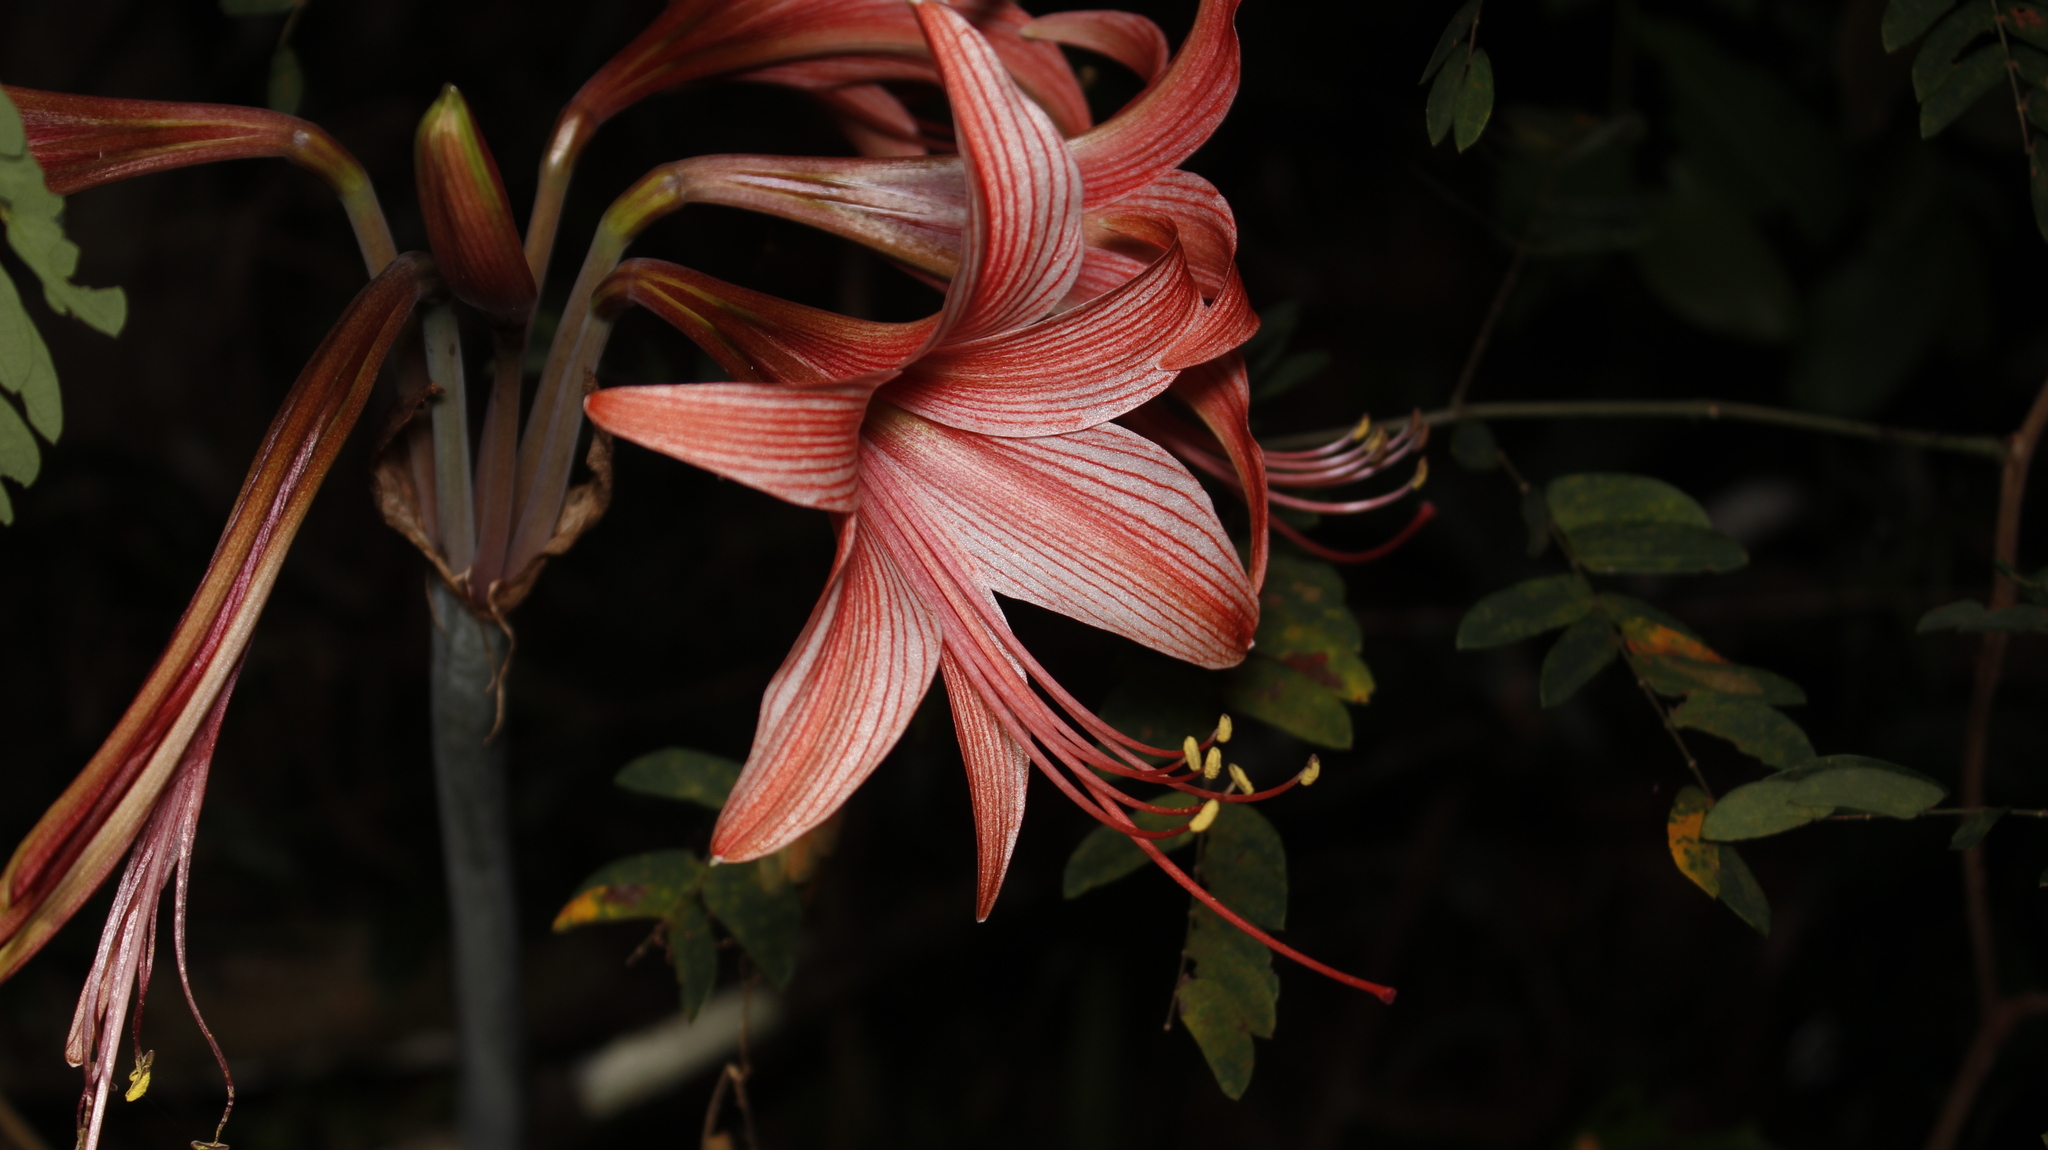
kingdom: Plantae
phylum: Tracheophyta
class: Liliopsida
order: Asparagales
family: Amaryllidaceae
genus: Hippeastrum
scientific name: Hippeastrum stylosum
